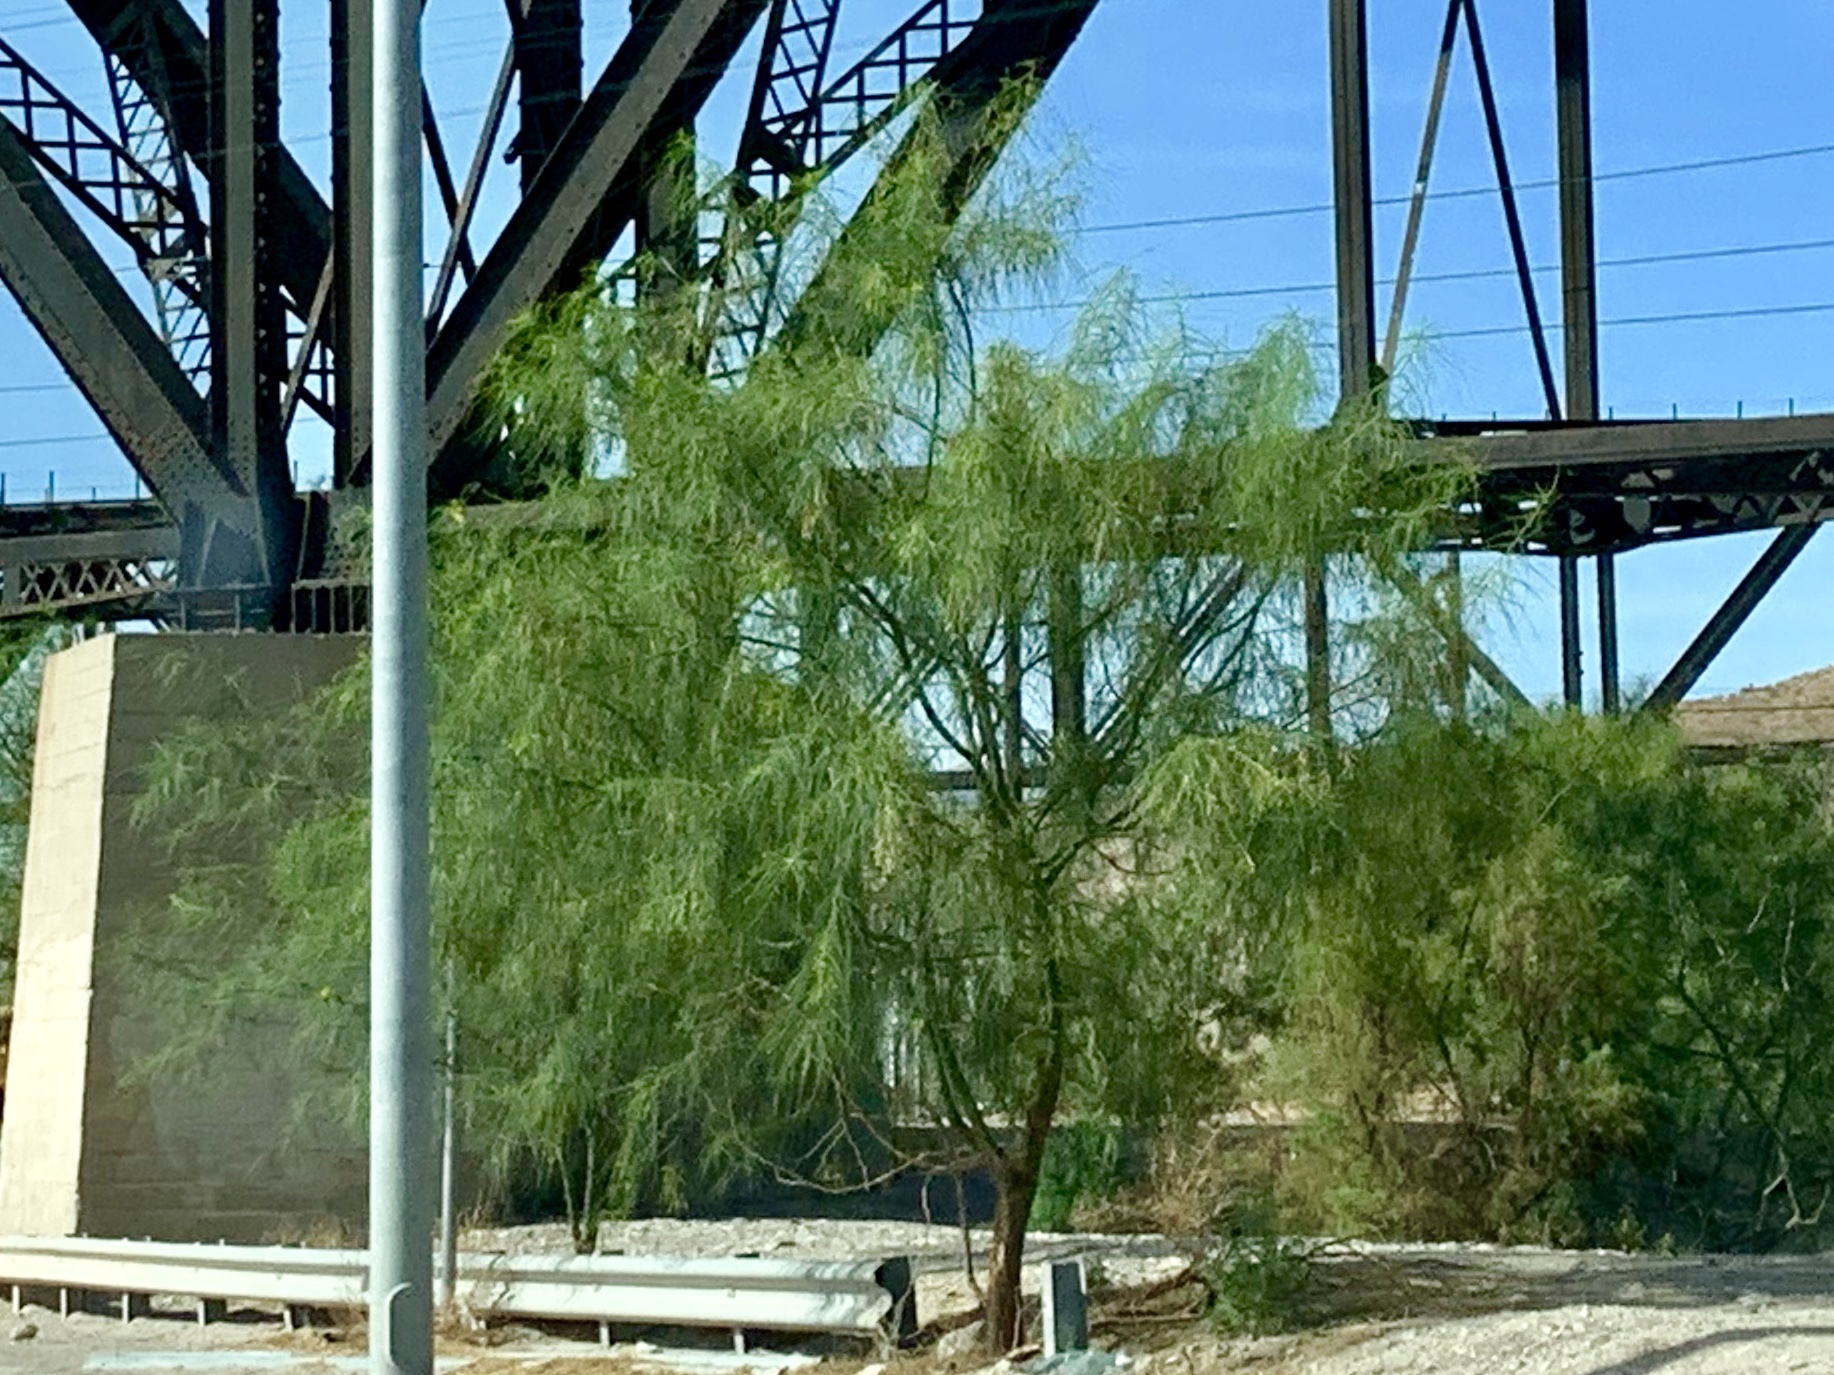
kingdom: Plantae
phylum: Tracheophyta
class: Magnoliopsida
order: Fabales
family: Fabaceae
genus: Parkinsonia
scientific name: Parkinsonia aculeata
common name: Jerusalem thorn
